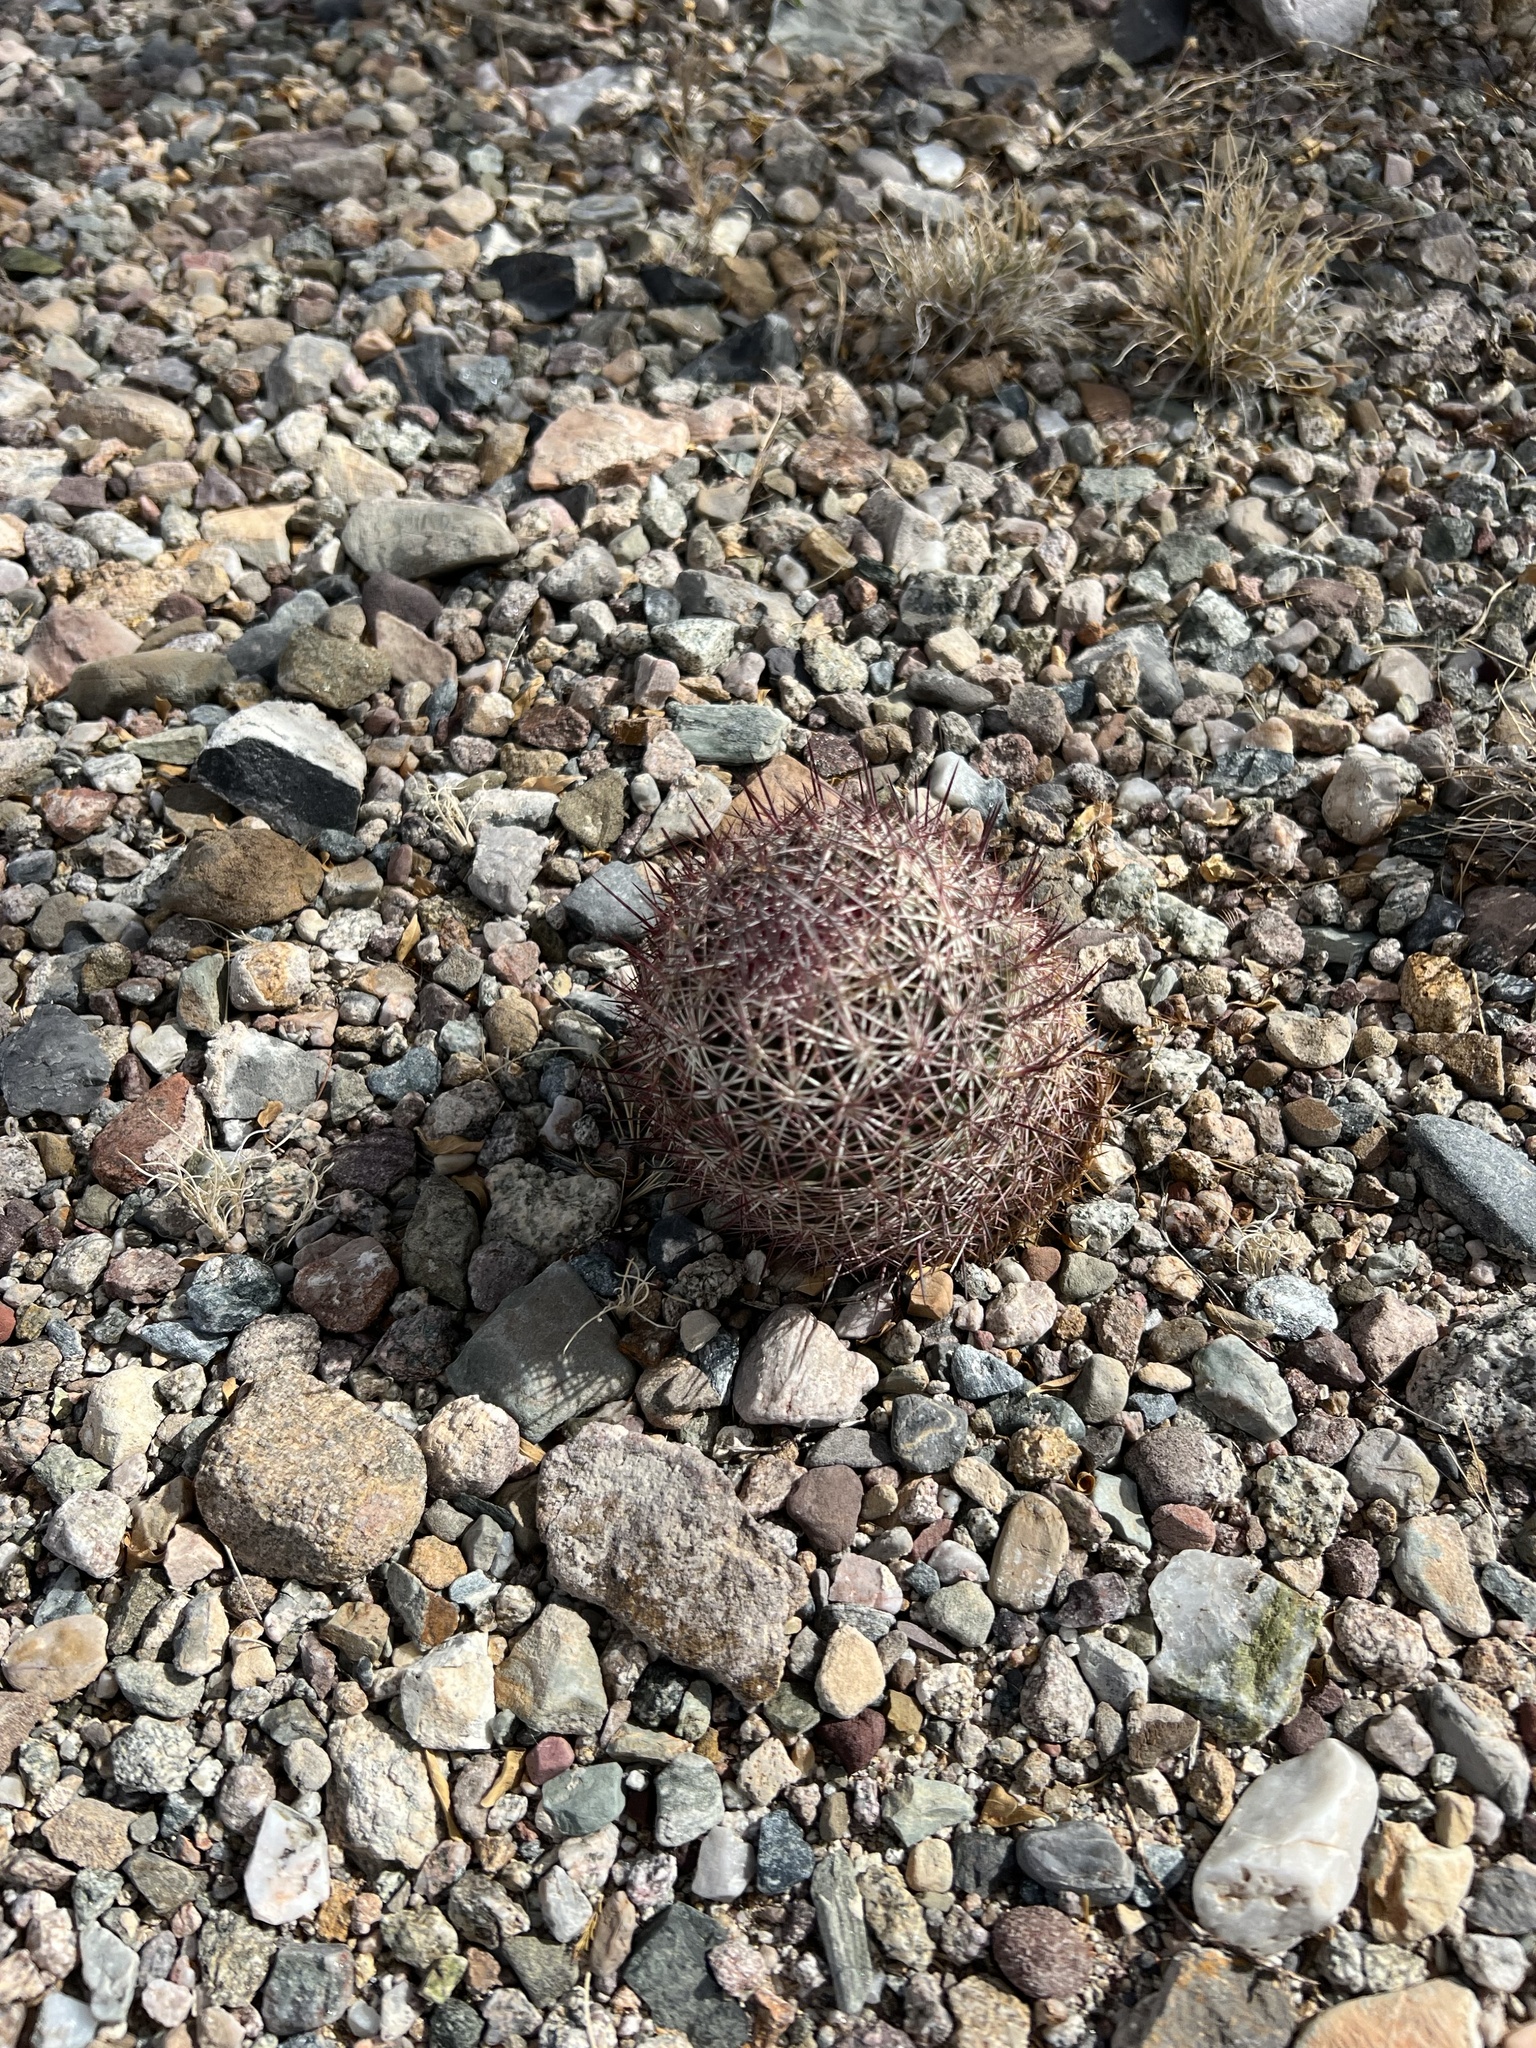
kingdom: Plantae
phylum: Tracheophyta
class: Magnoliopsida
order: Caryophyllales
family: Cactaceae
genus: Sclerocactus
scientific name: Sclerocactus johnsonii
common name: Eight-spine fishhook cactus
